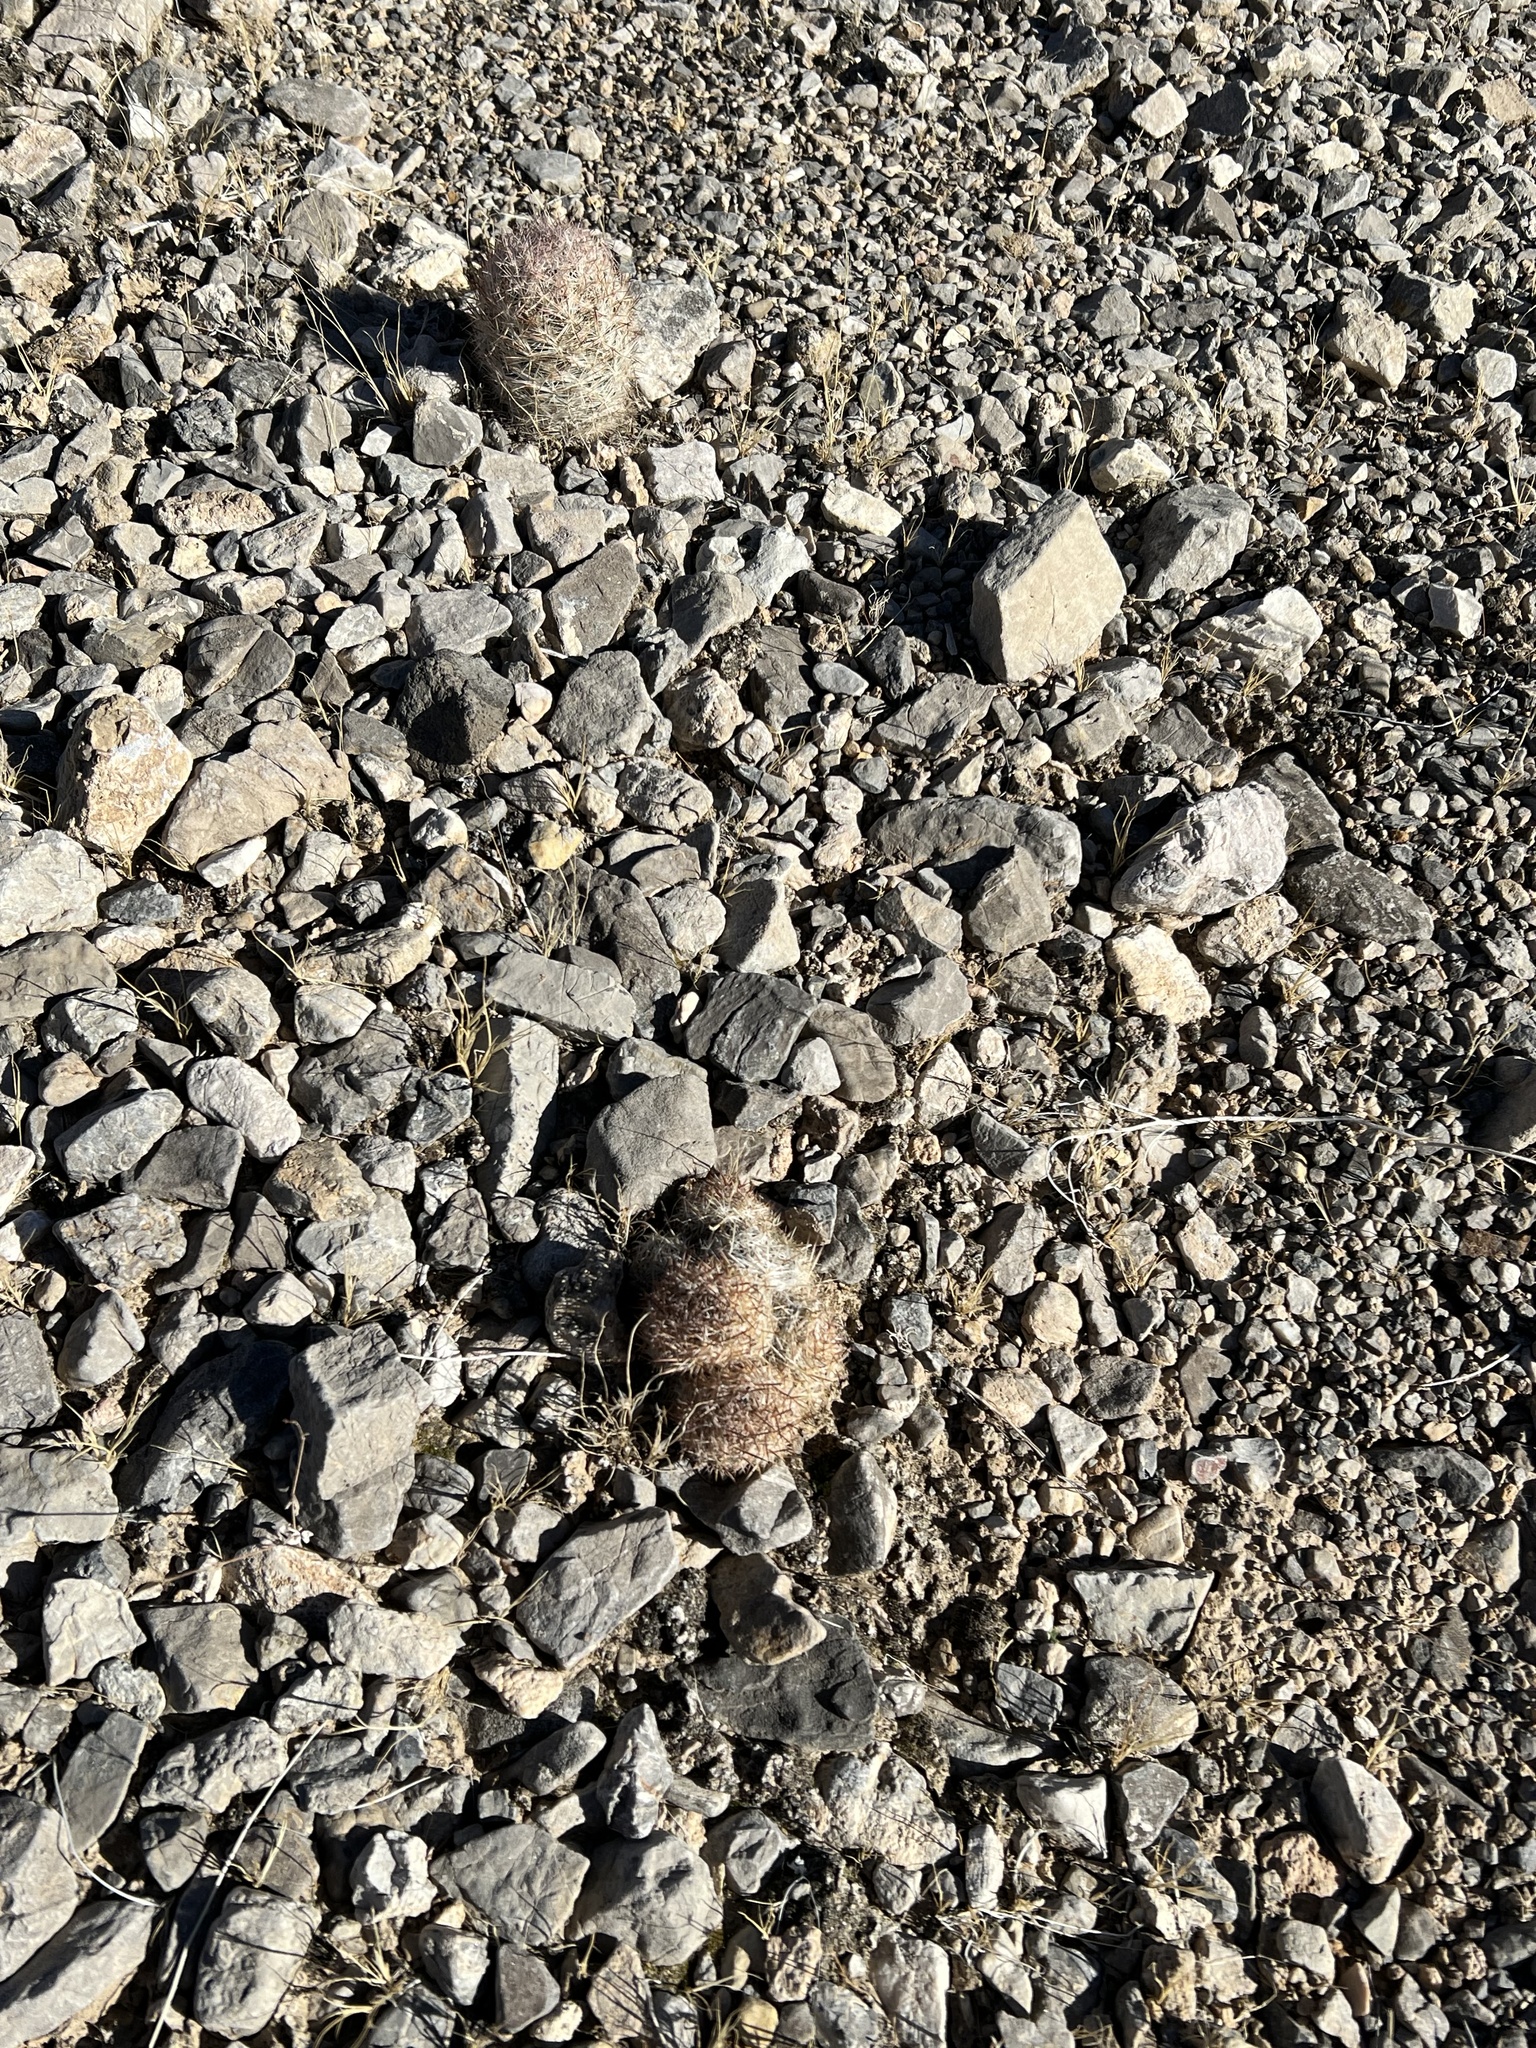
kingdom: Plantae
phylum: Tracheophyta
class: Magnoliopsida
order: Caryophyllales
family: Cactaceae
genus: Pelecyphora
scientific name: Pelecyphora dasyacantha
